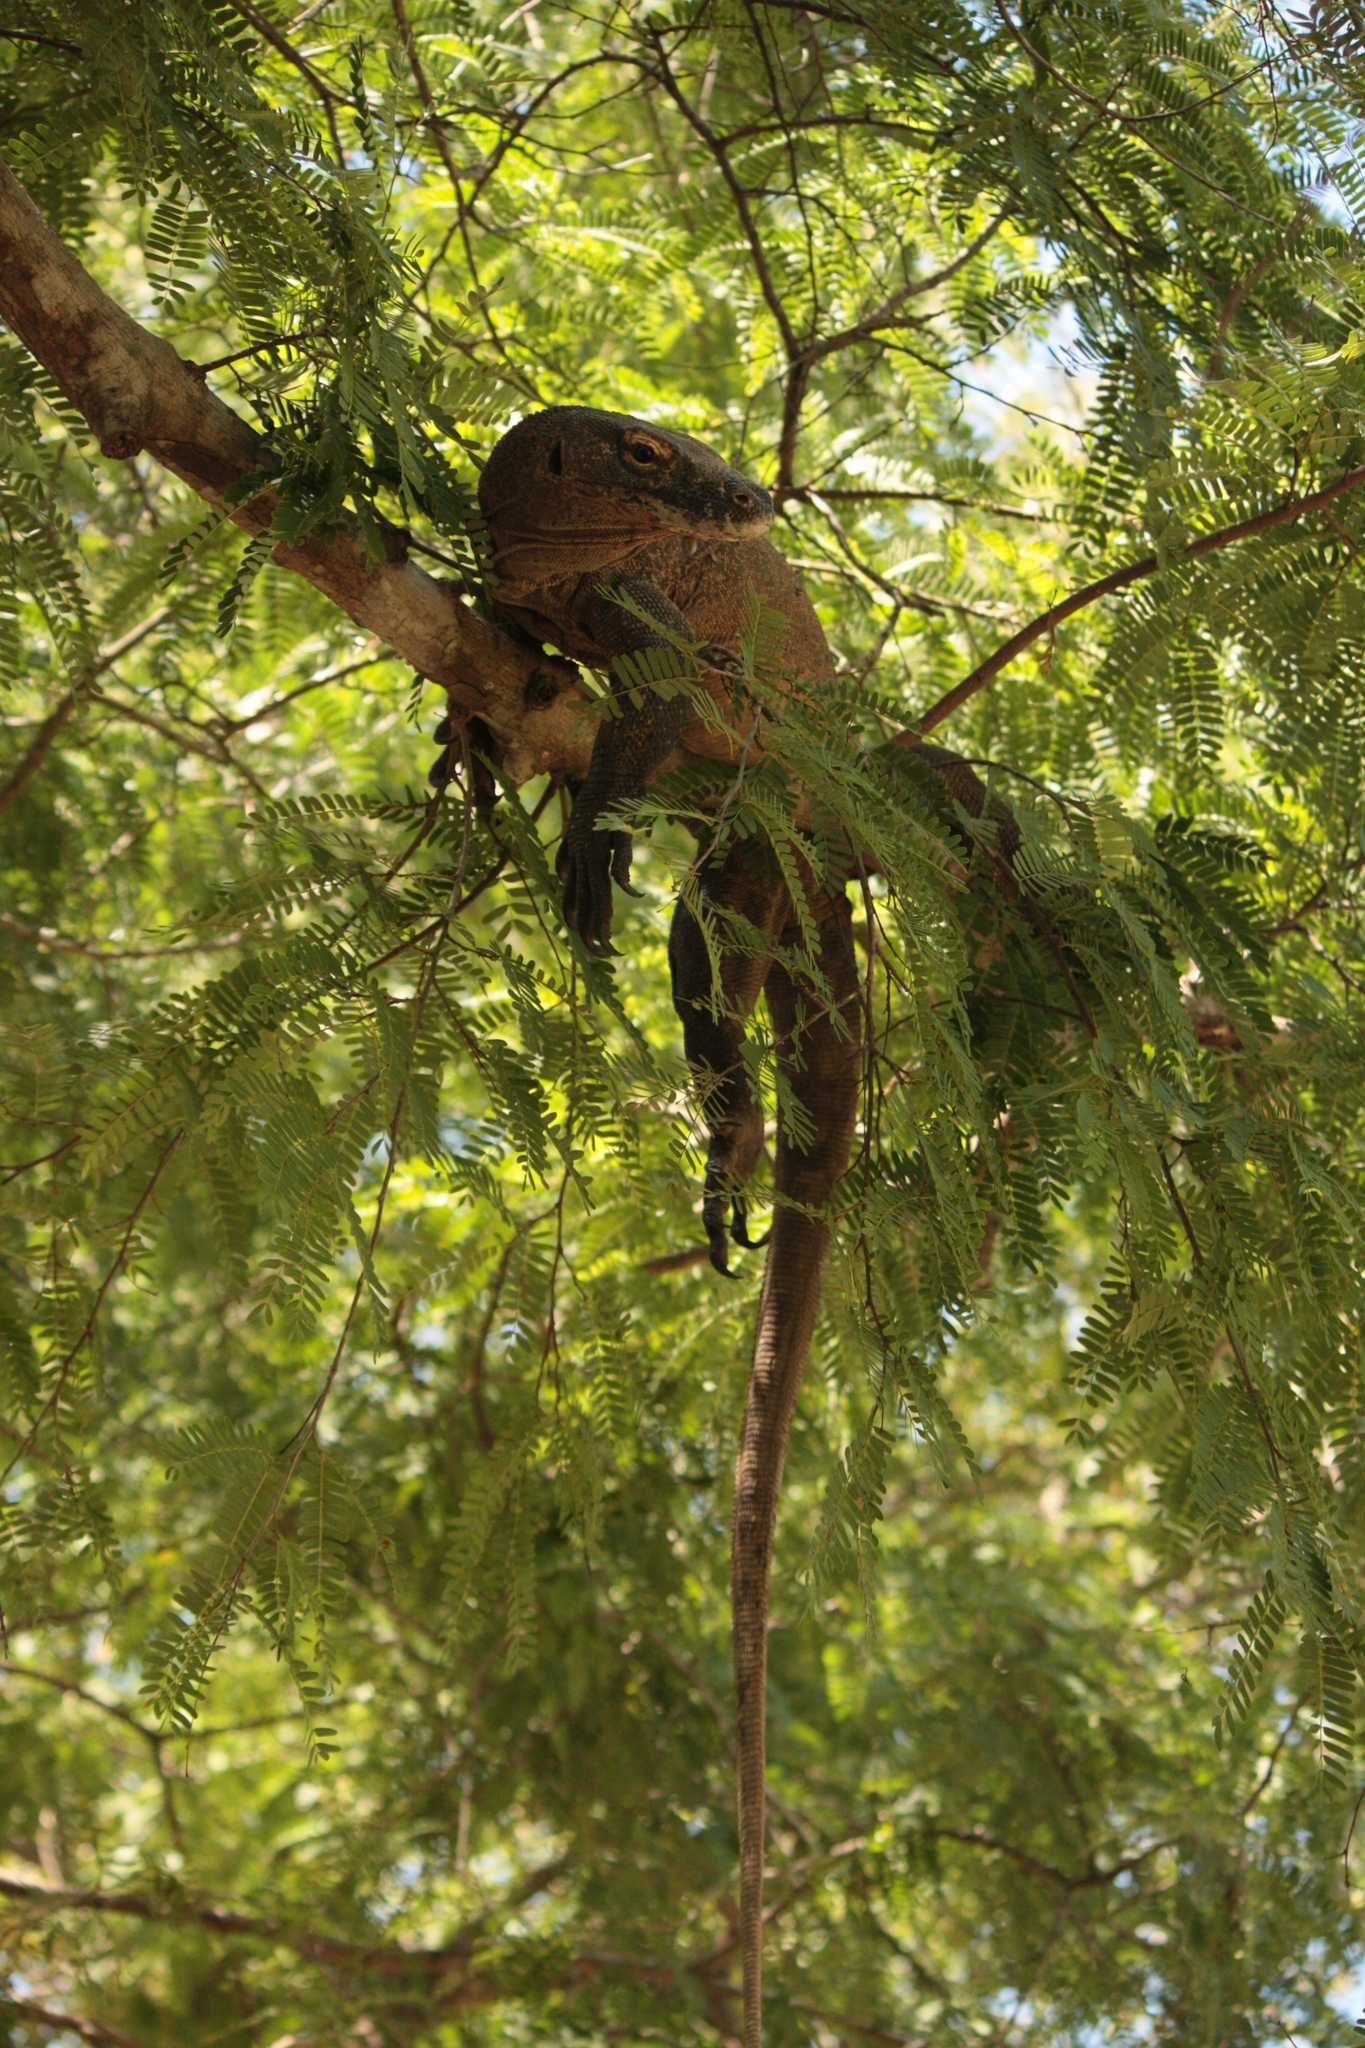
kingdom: Animalia
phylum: Chordata
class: Squamata
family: Varanidae
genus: Varanus
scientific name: Varanus komodoensis
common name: Komodo dragon
